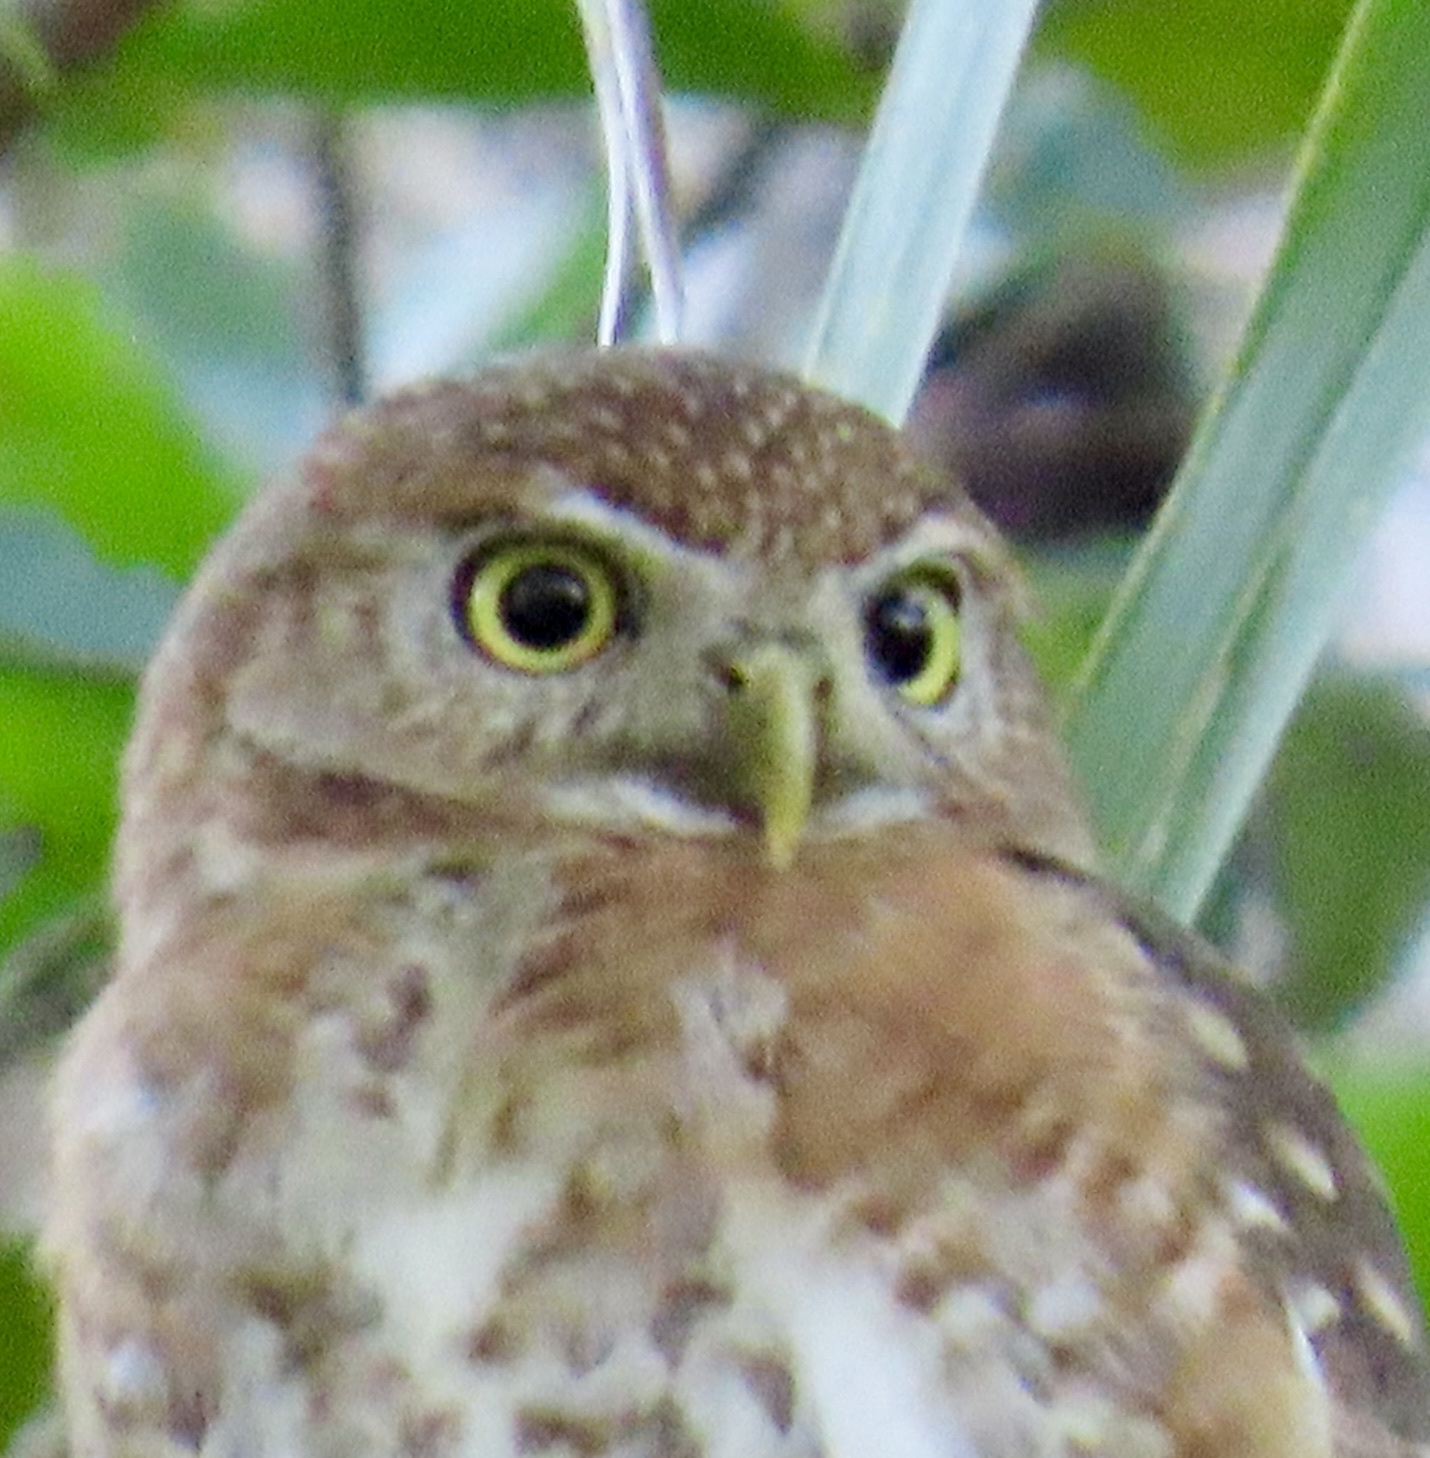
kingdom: Animalia
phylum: Chordata
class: Aves
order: Strigiformes
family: Strigidae
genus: Glaucidium
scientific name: Glaucidium siju
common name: Cuban pygmy-owl
